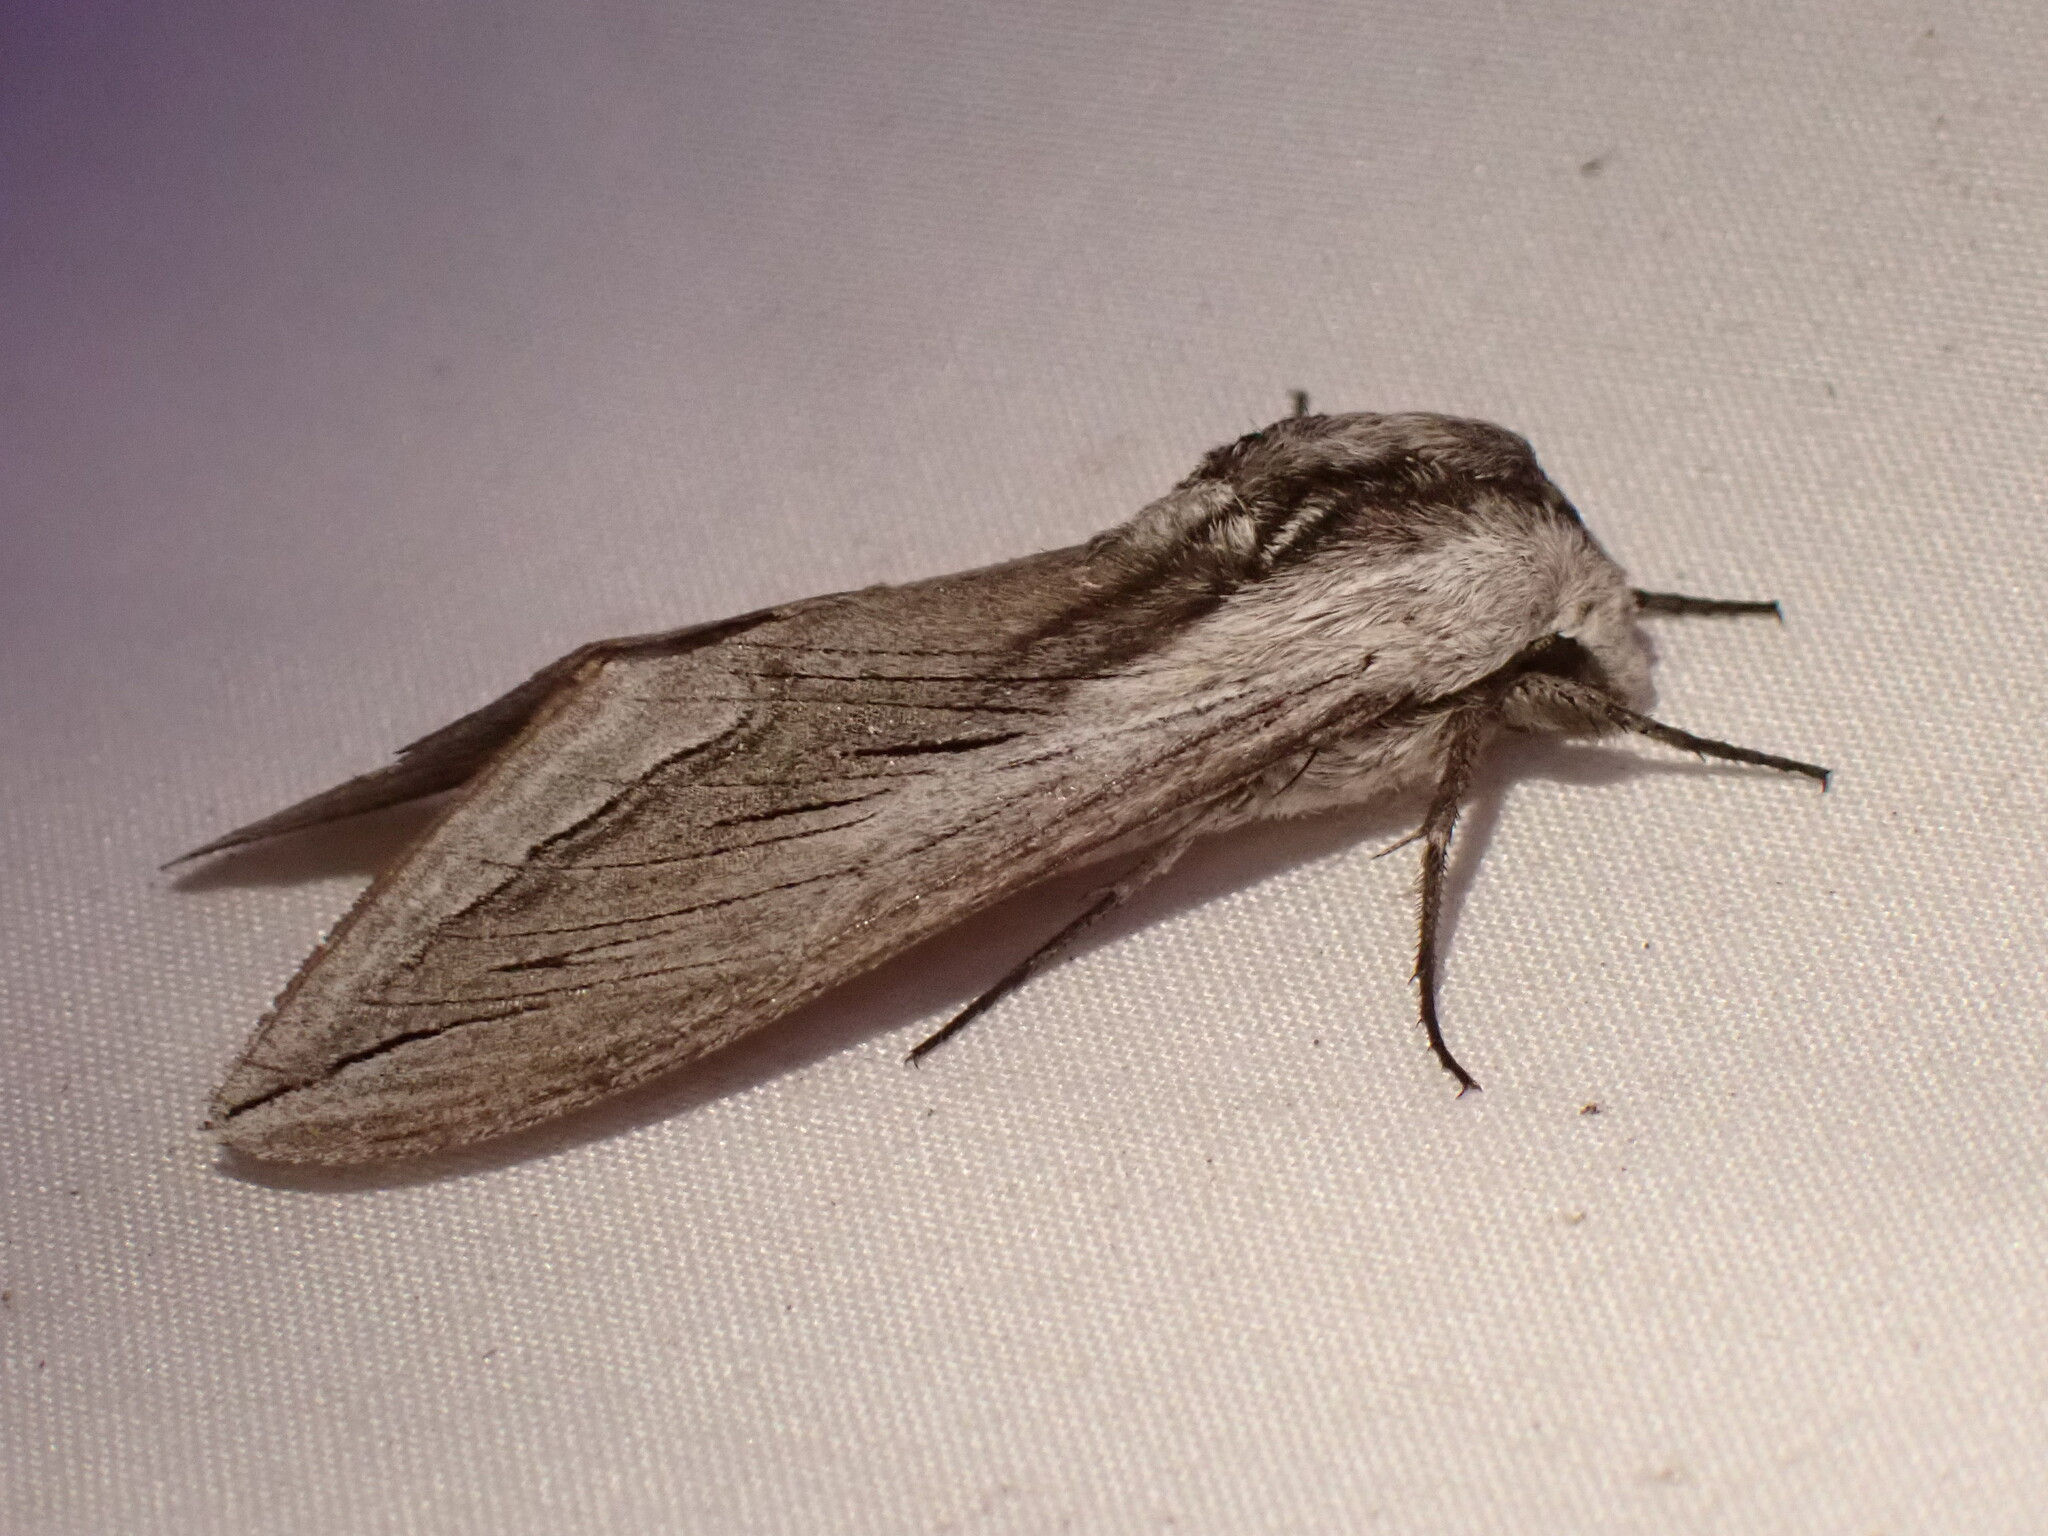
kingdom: Animalia
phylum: Arthropoda
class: Insecta
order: Lepidoptera
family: Sphingidae
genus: Sphinx
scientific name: Sphinx vashti
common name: Snowberry sphinx
